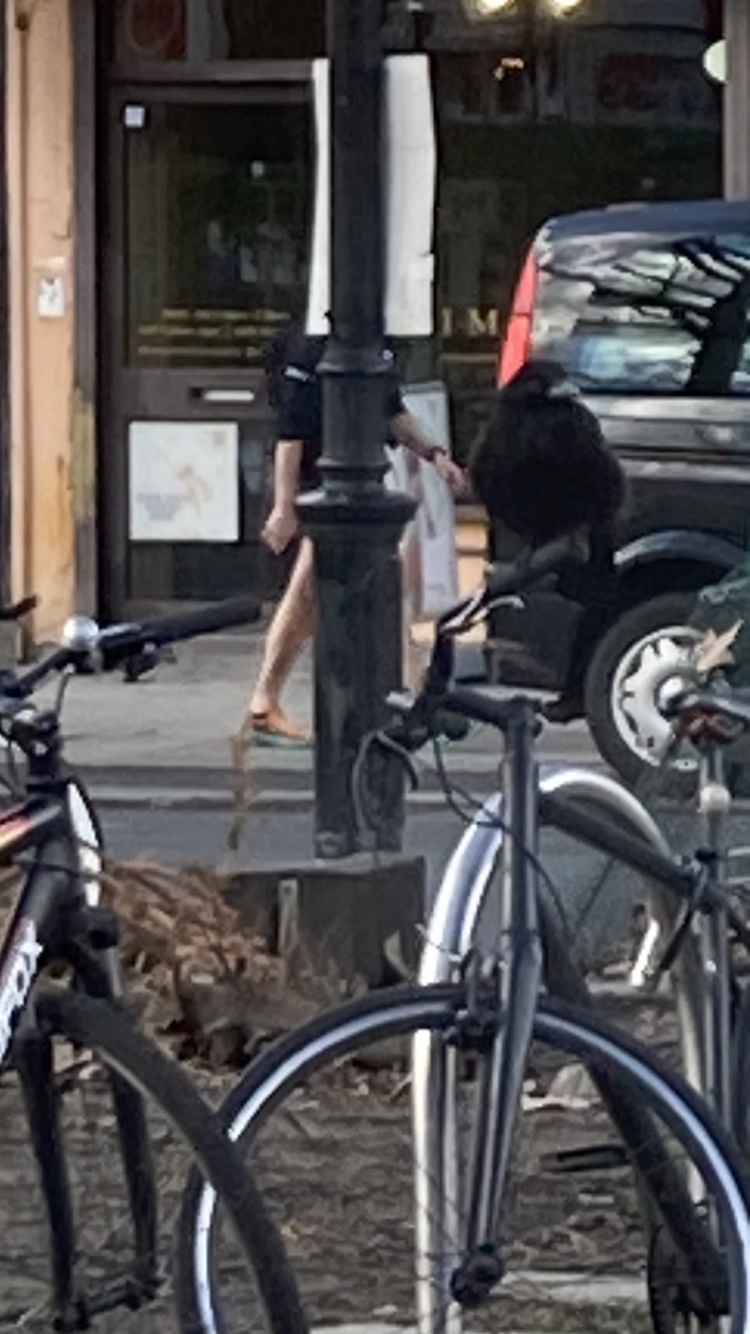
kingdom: Animalia
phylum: Chordata
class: Aves
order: Passeriformes
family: Corvidae
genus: Corvus
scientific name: Corvus corone
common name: Carrion crow
